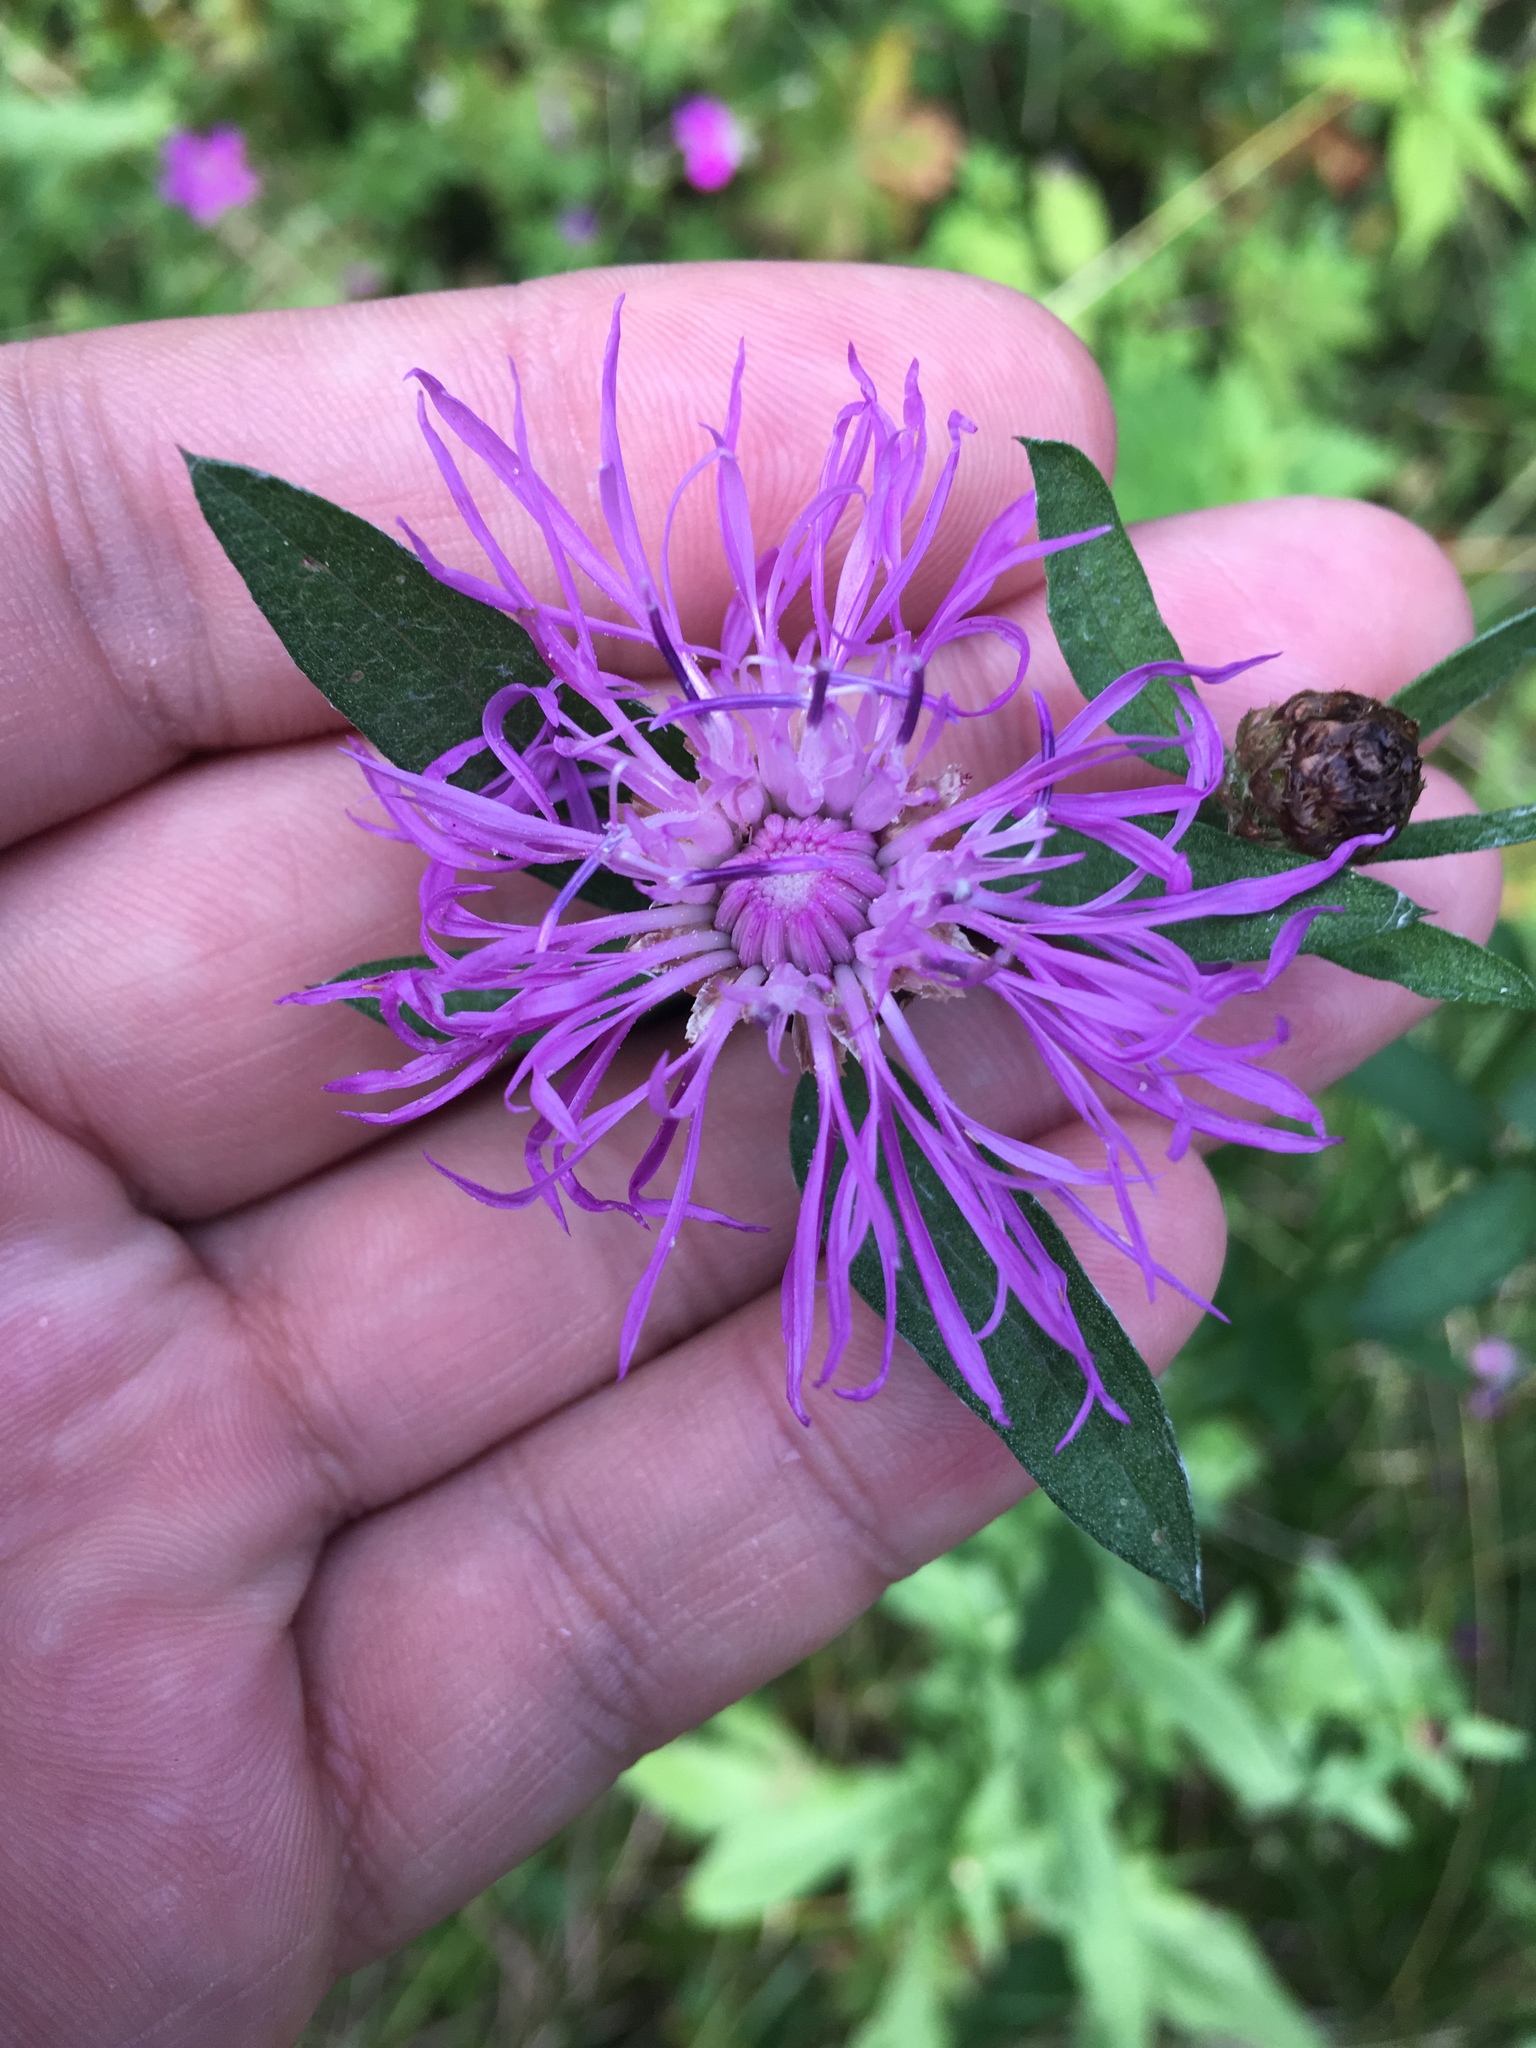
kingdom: Plantae
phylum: Tracheophyta
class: Magnoliopsida
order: Asterales
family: Asteraceae
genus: Centaurea
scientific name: Centaurea jacea
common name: Brown knapweed
